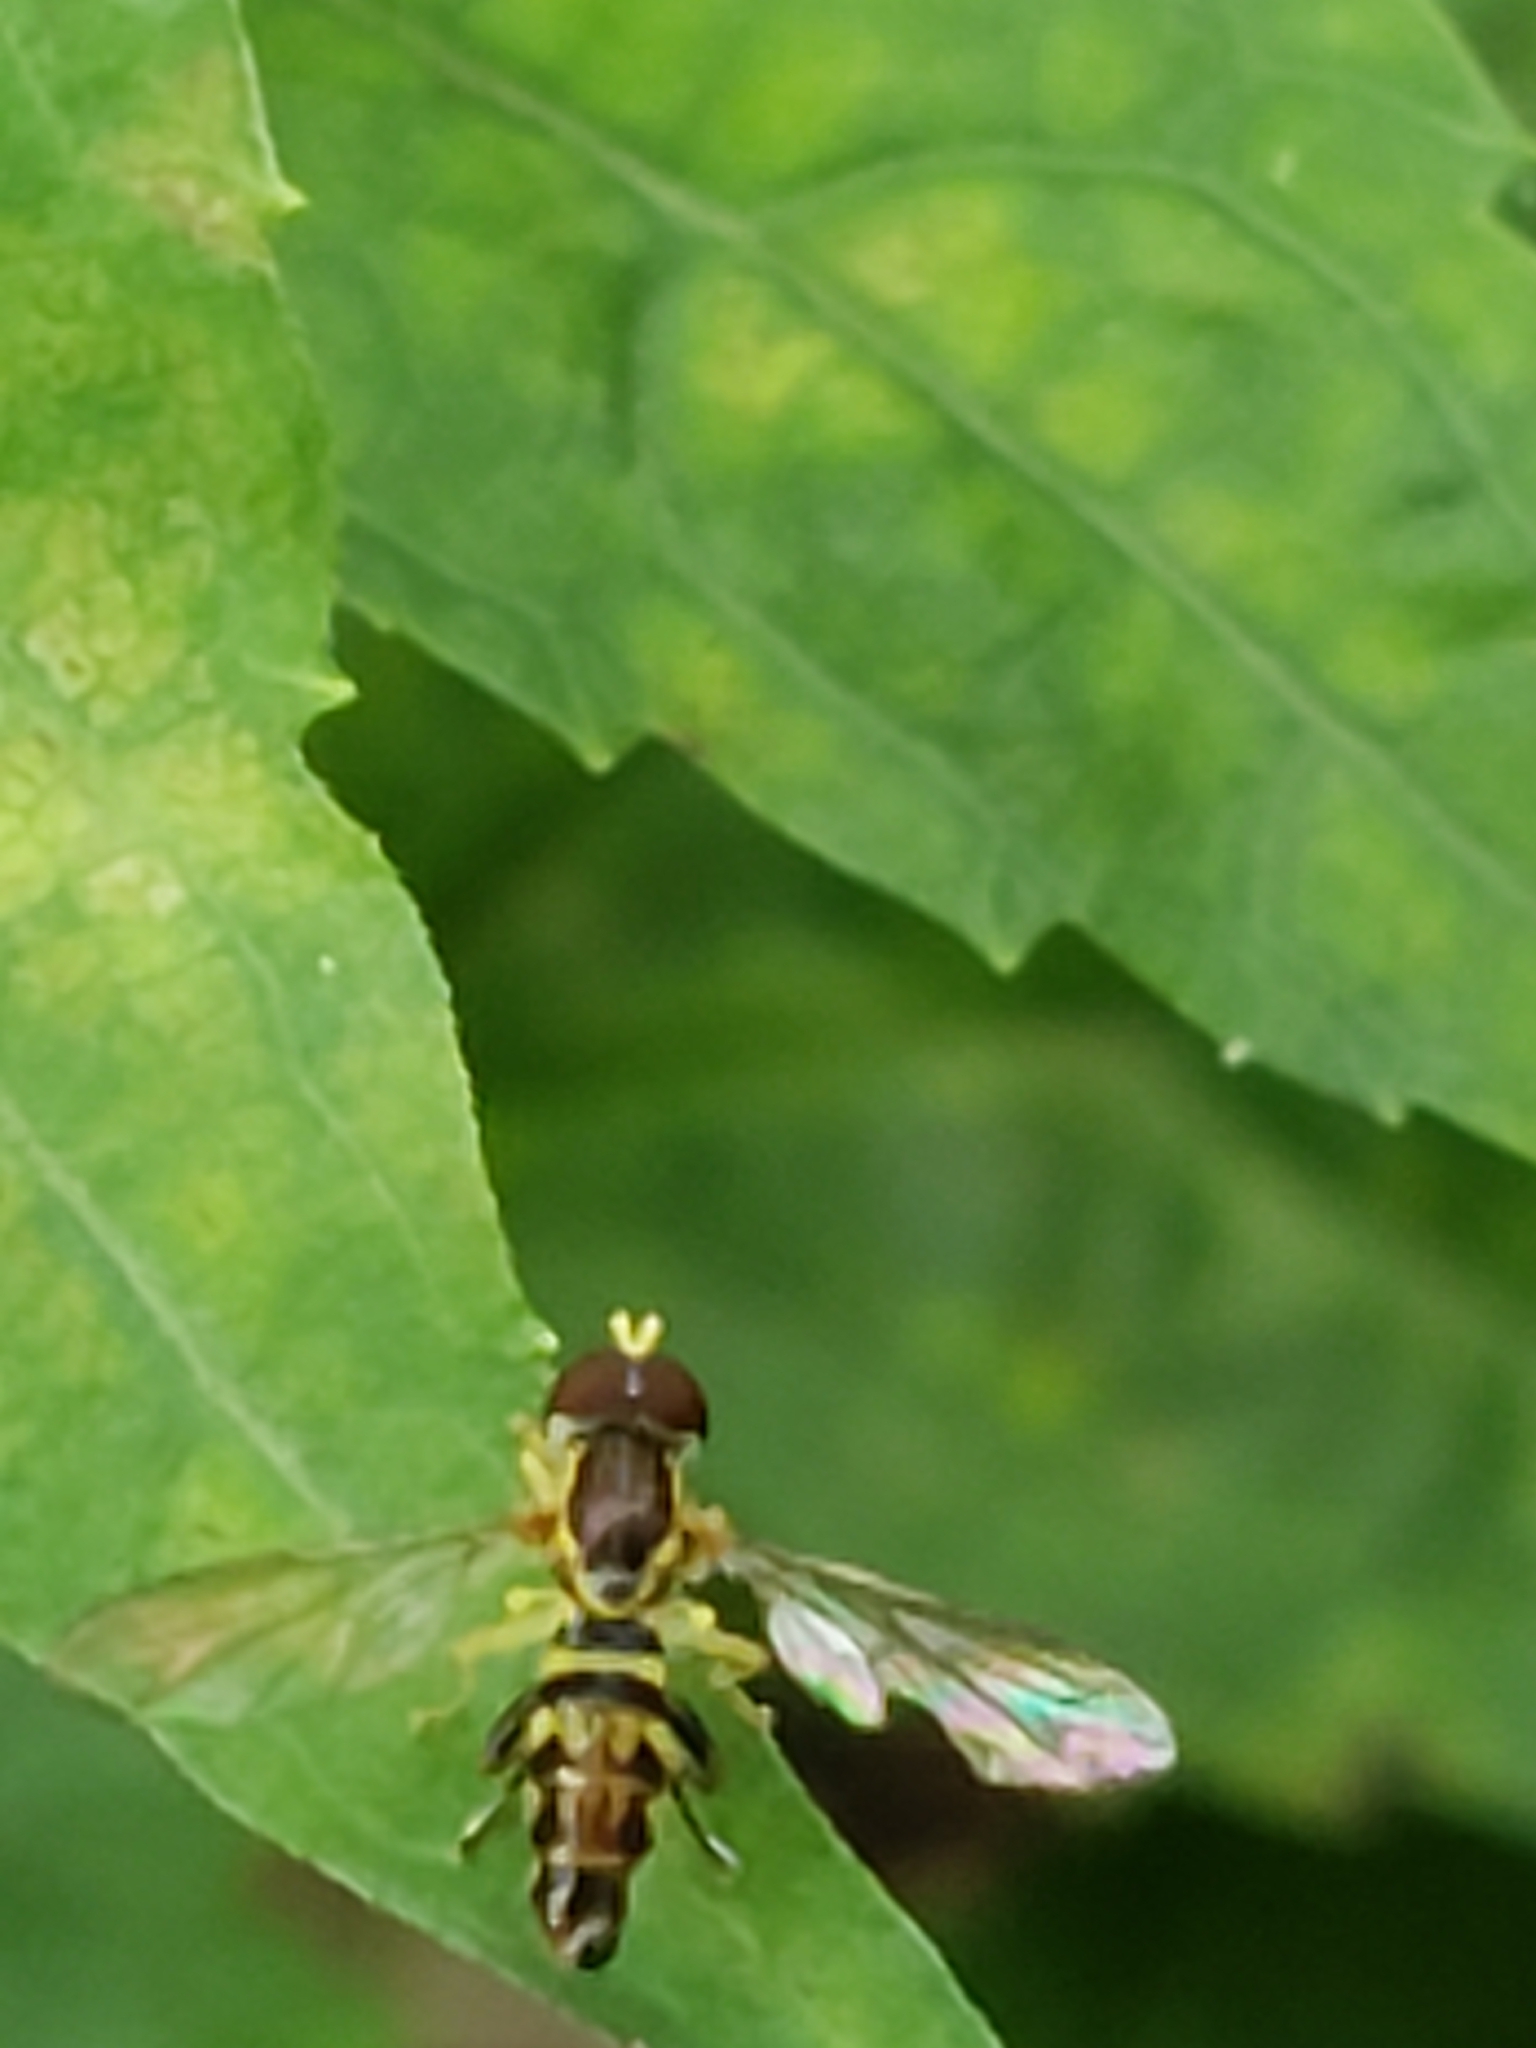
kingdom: Animalia
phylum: Arthropoda
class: Insecta
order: Diptera
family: Syrphidae
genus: Toxomerus
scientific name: Toxomerus geminatus
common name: Eastern calligrapher
